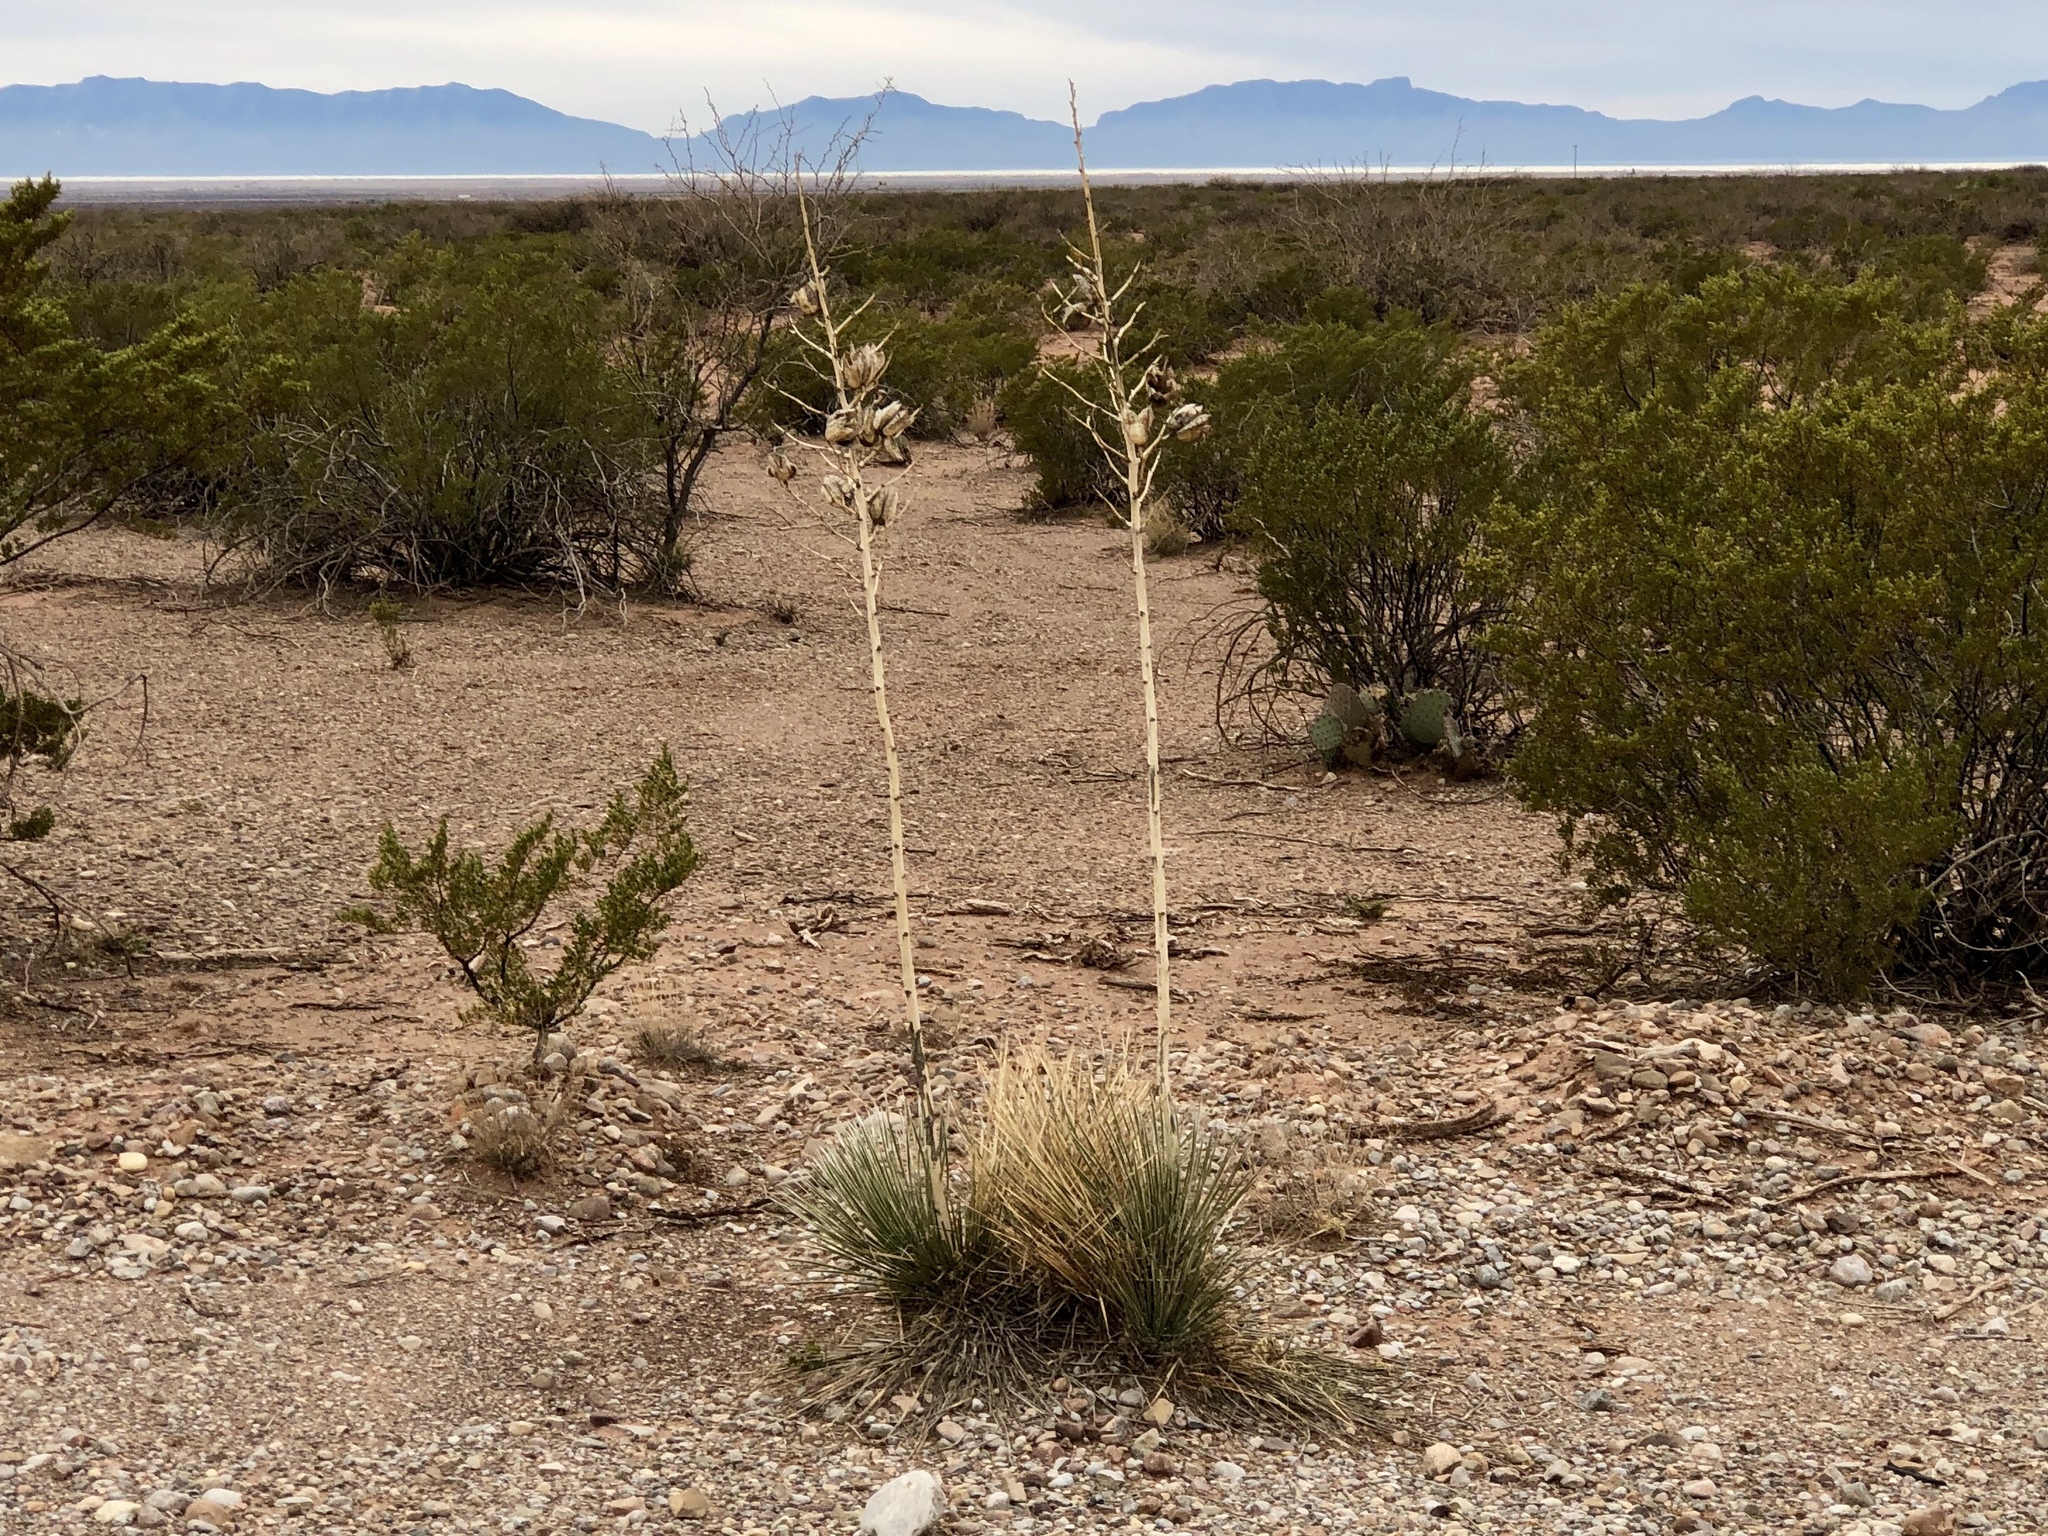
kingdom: Plantae
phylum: Tracheophyta
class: Liliopsida
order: Asparagales
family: Asparagaceae
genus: Yucca
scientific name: Yucca elata
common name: Palmella
